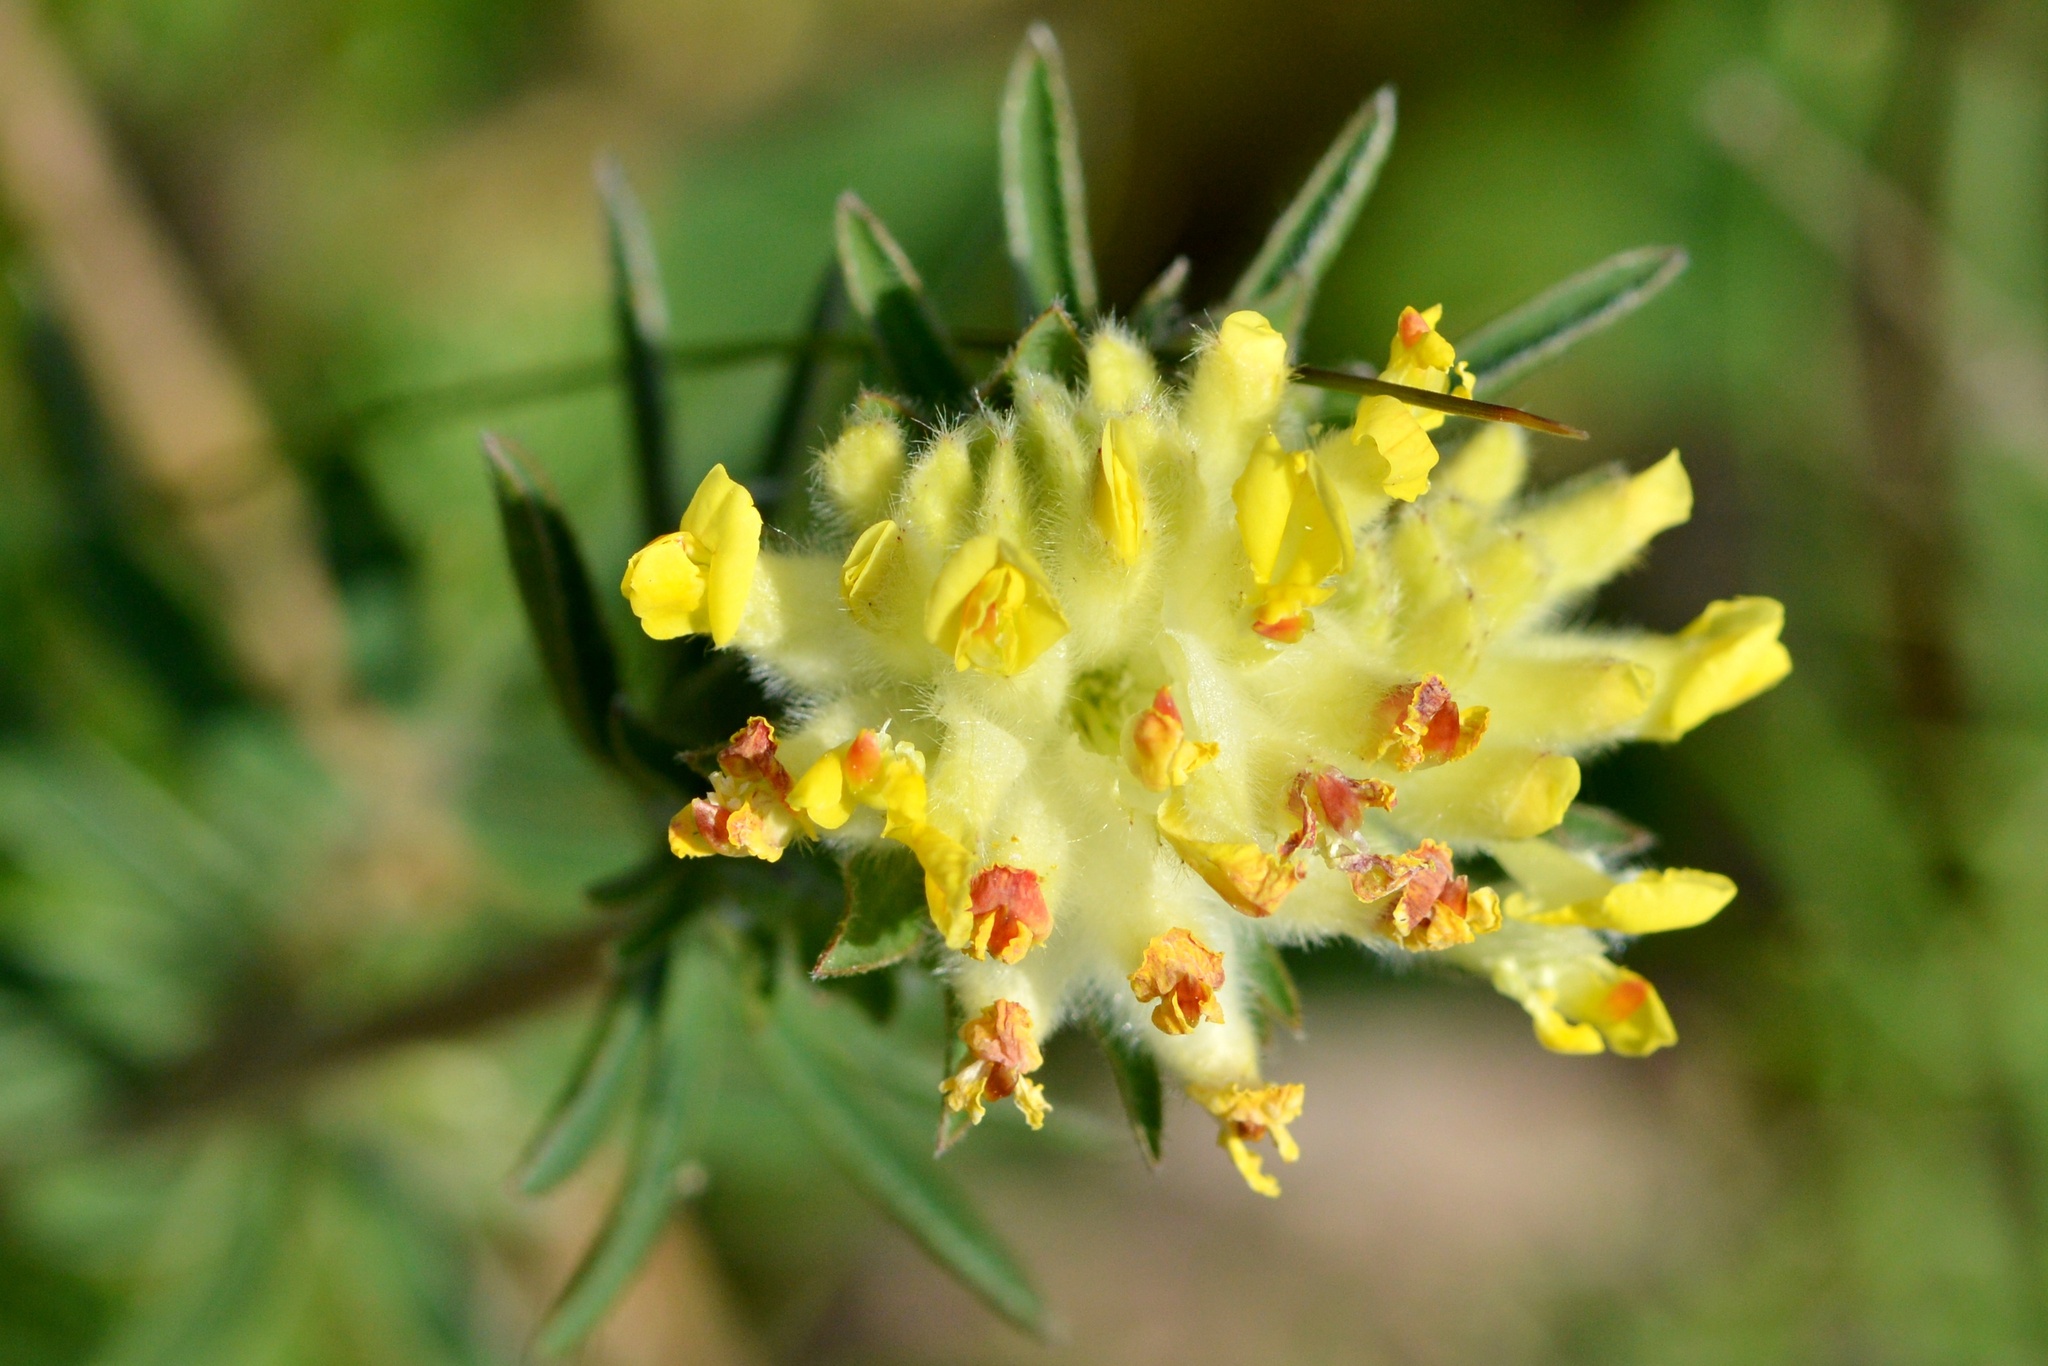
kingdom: Plantae
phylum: Tracheophyta
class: Magnoliopsida
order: Fabales
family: Fabaceae
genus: Anthyllis
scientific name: Anthyllis vulneraria
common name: Kidney vetch
